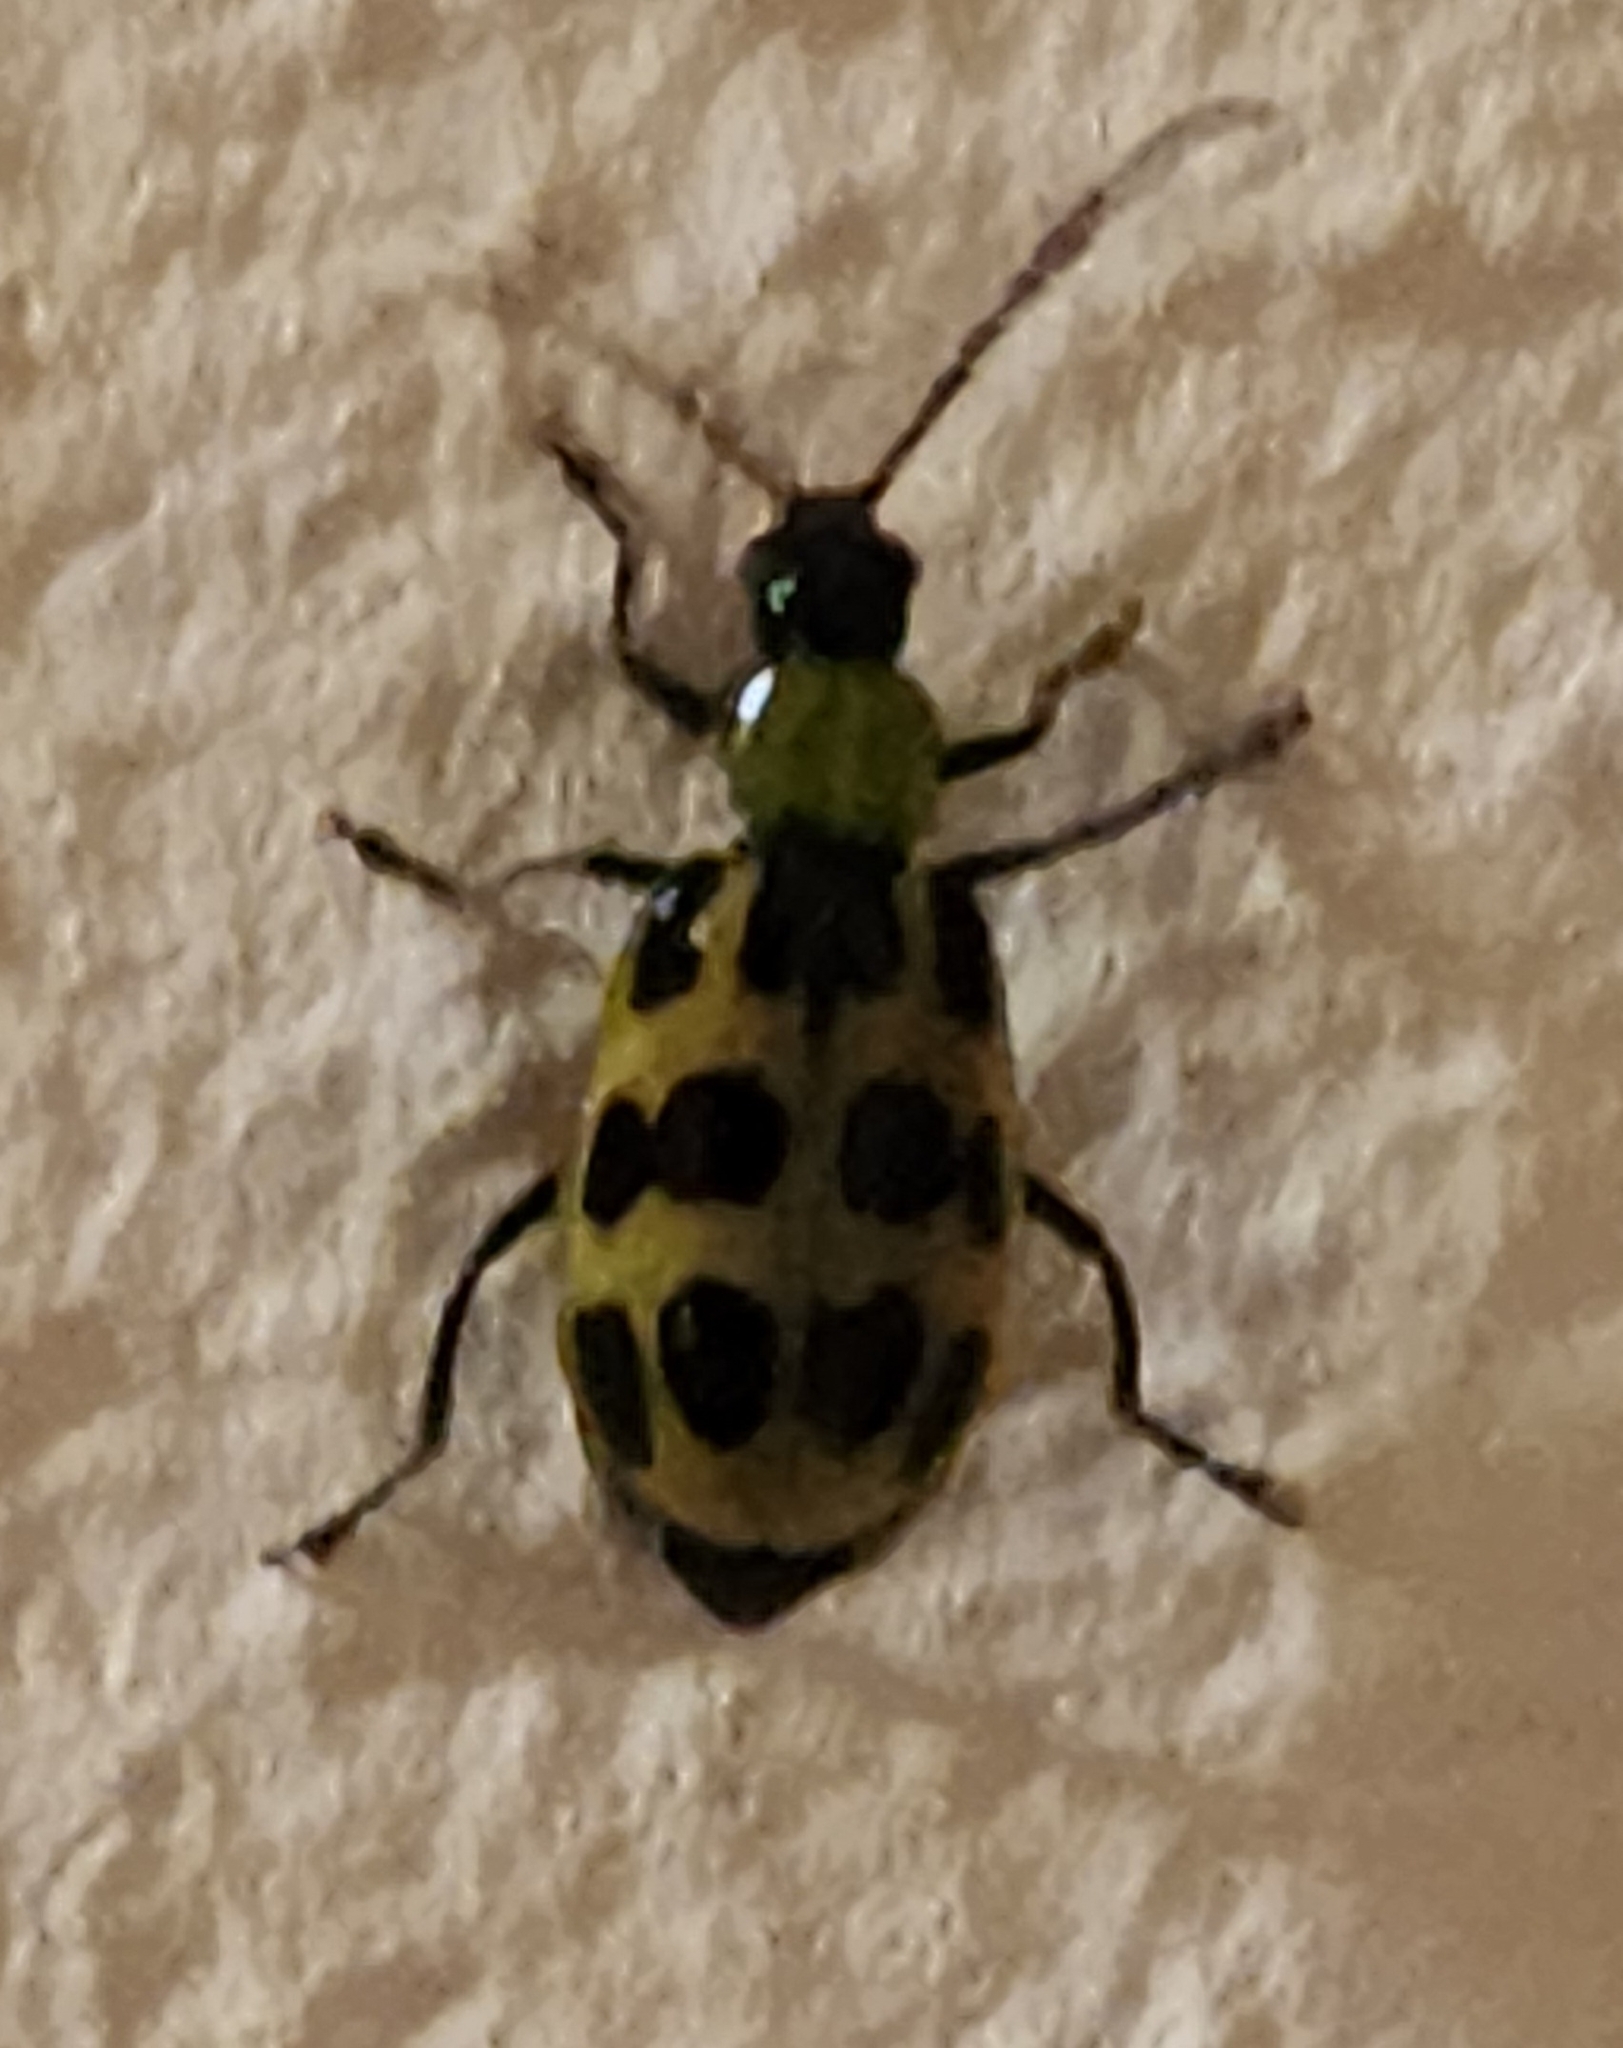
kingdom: Animalia
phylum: Arthropoda
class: Insecta
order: Coleoptera
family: Chrysomelidae
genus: Diabrotica
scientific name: Diabrotica undecimpunctata
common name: Spotted cucumber beetle
